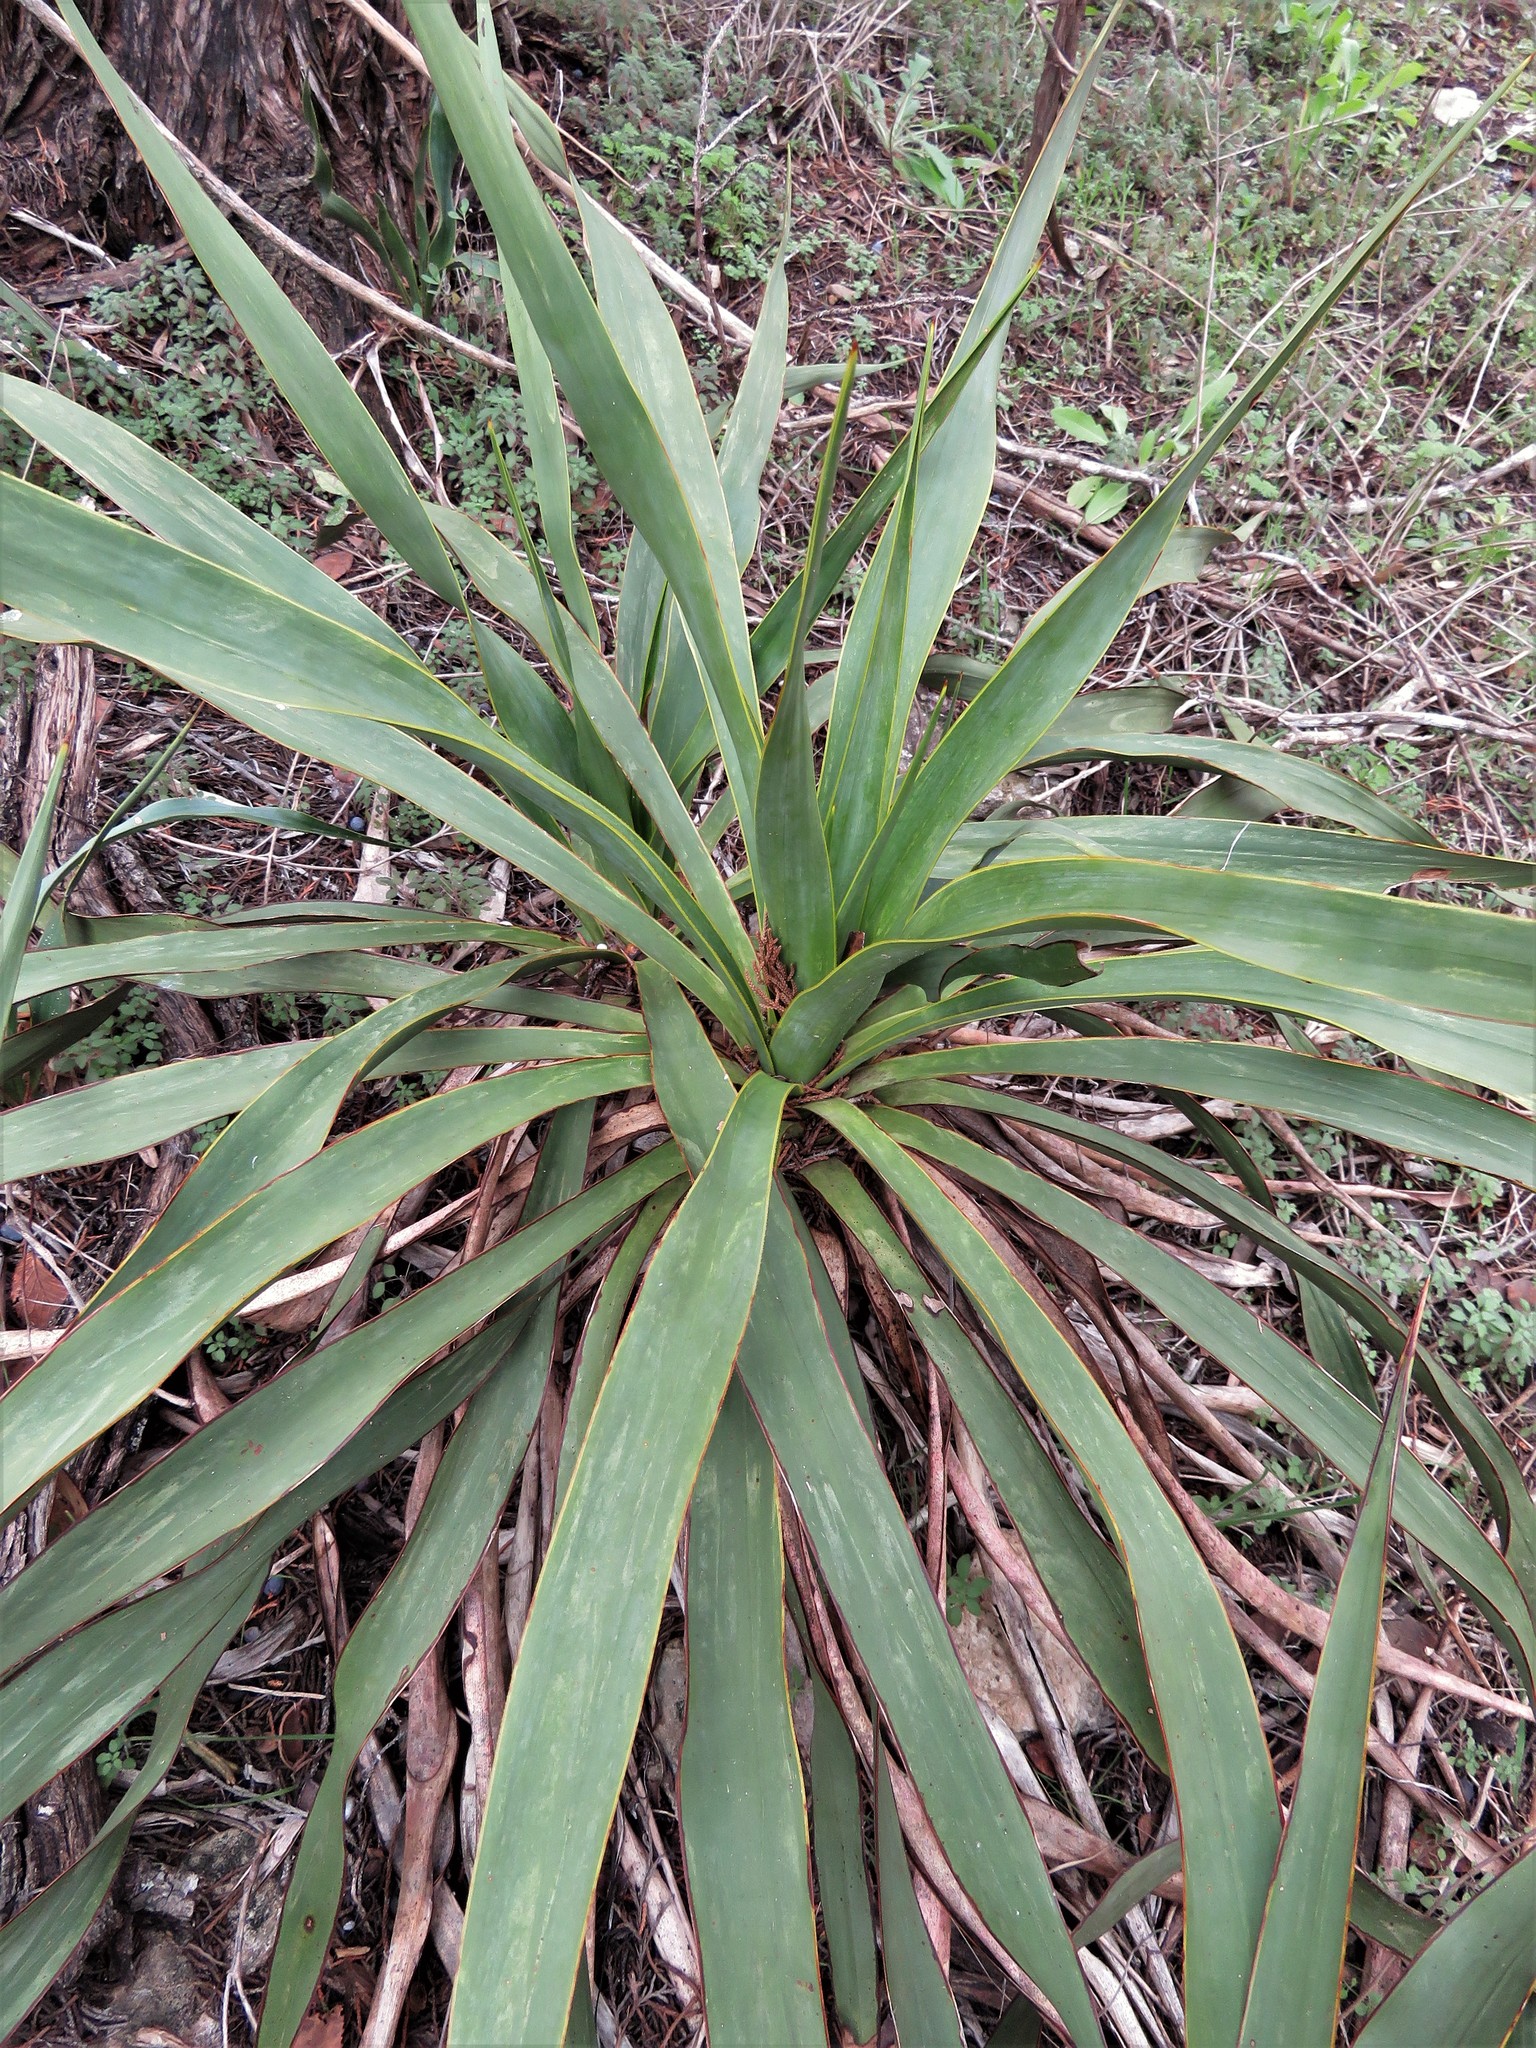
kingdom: Plantae
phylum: Tracheophyta
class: Liliopsida
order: Asparagales
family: Asparagaceae
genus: Yucca
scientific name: Yucca rupicola
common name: Twisted-leaf spanish-dagger
